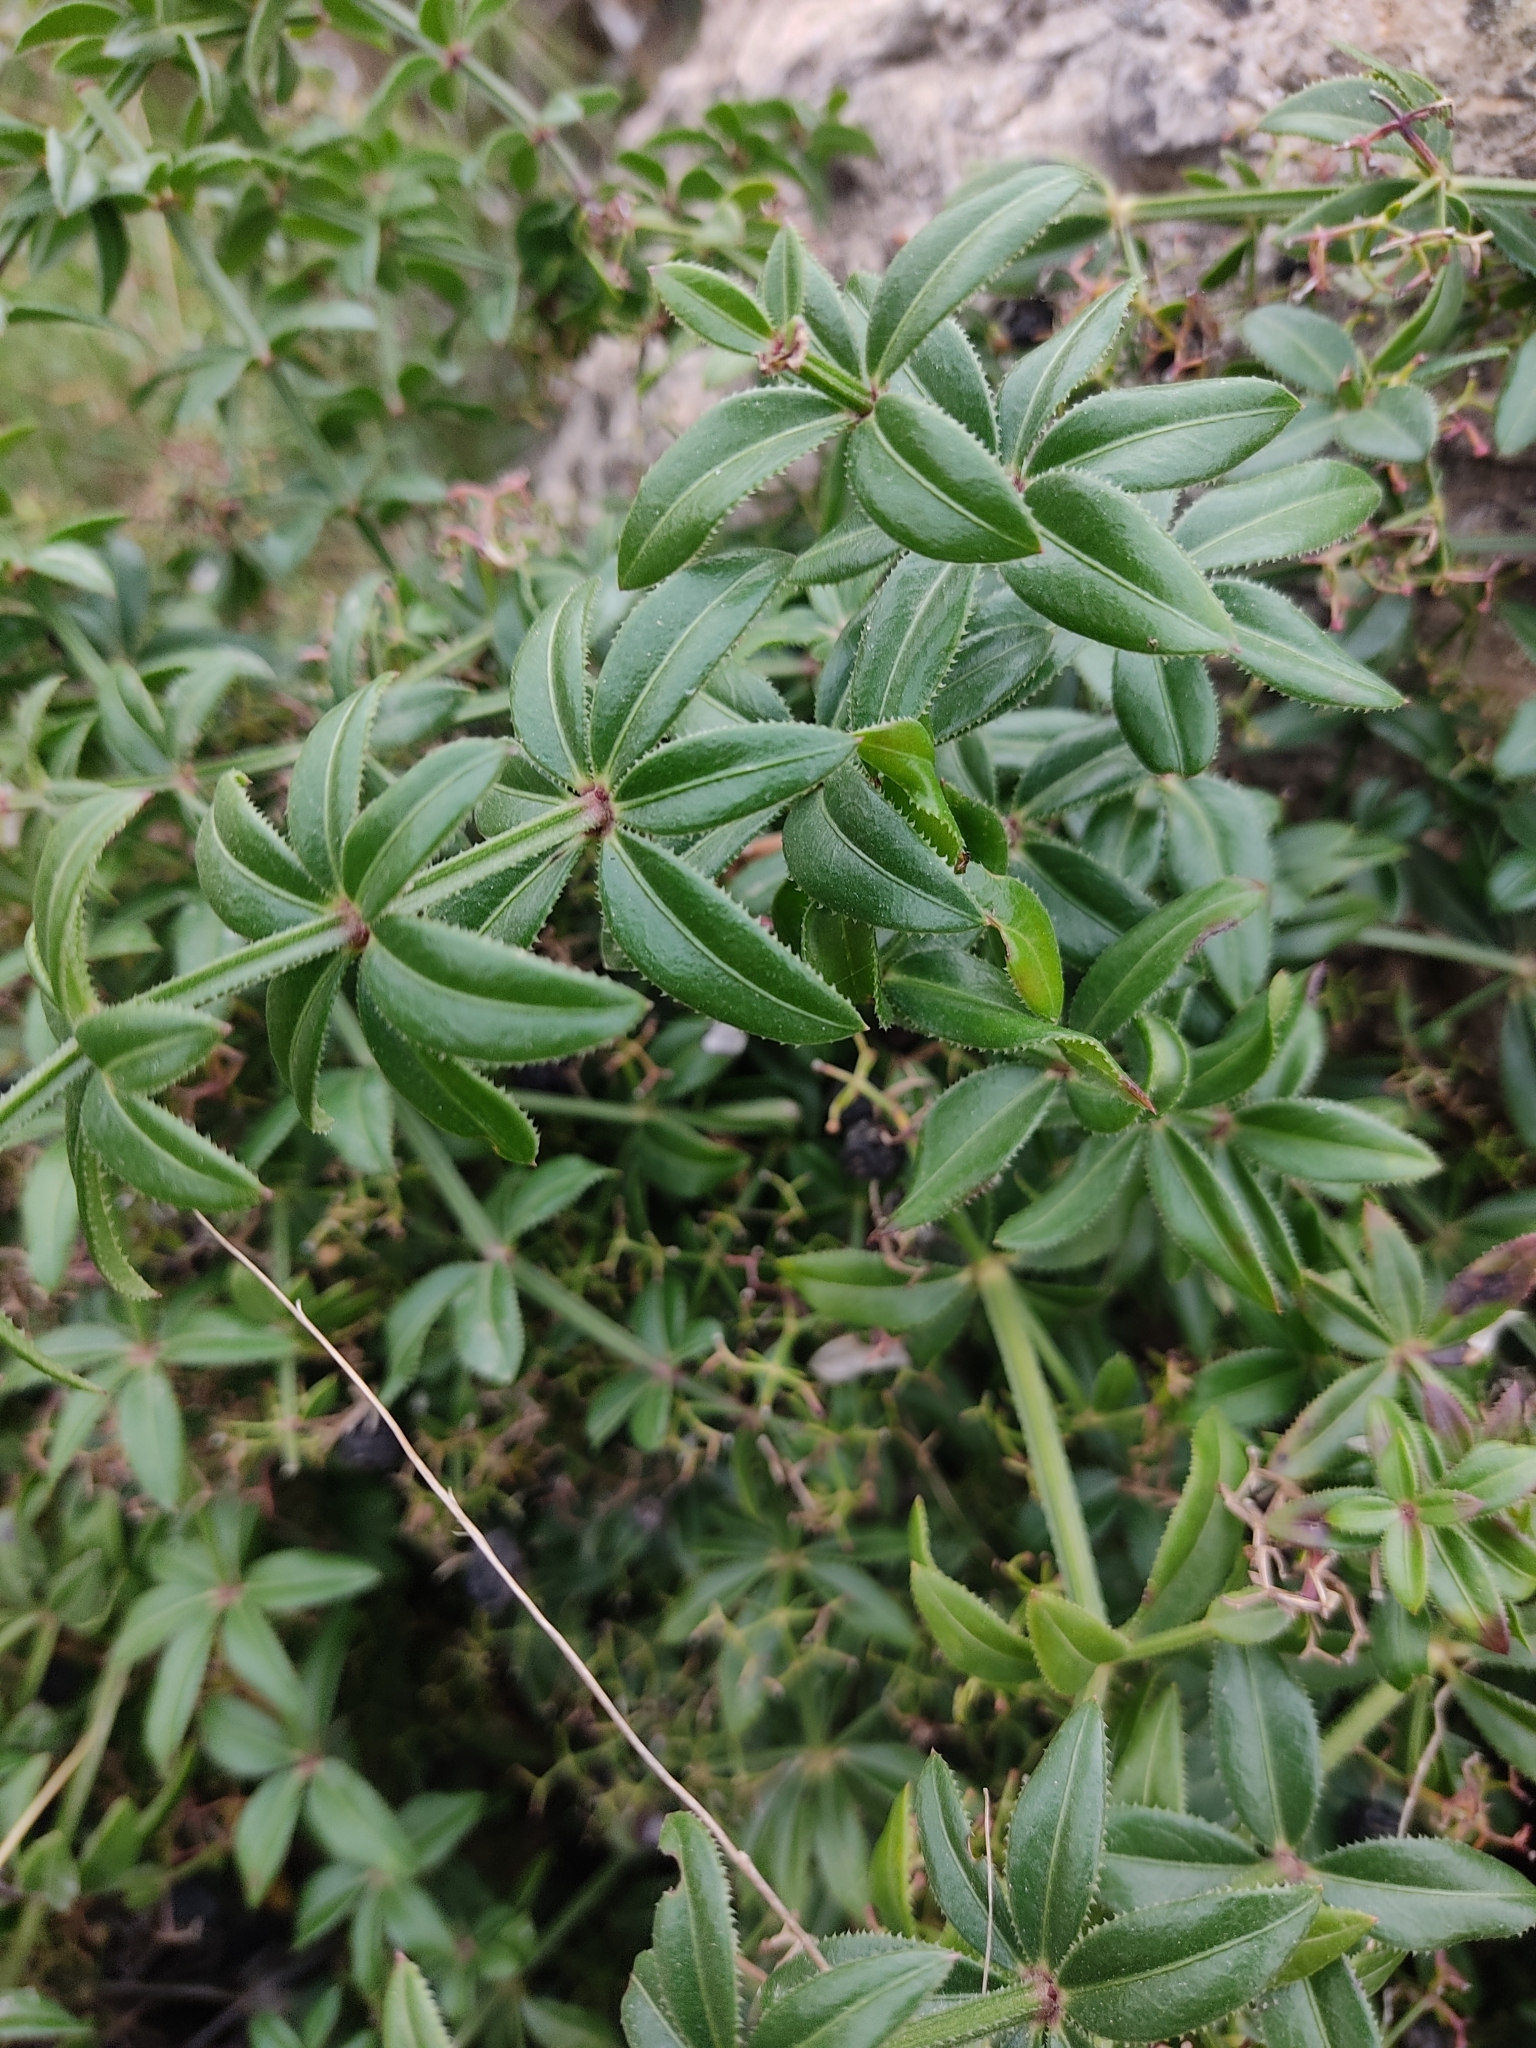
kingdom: Plantae
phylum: Tracheophyta
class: Magnoliopsida
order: Gentianales
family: Rubiaceae
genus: Rubia
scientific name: Rubia peregrina
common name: Wild madder
